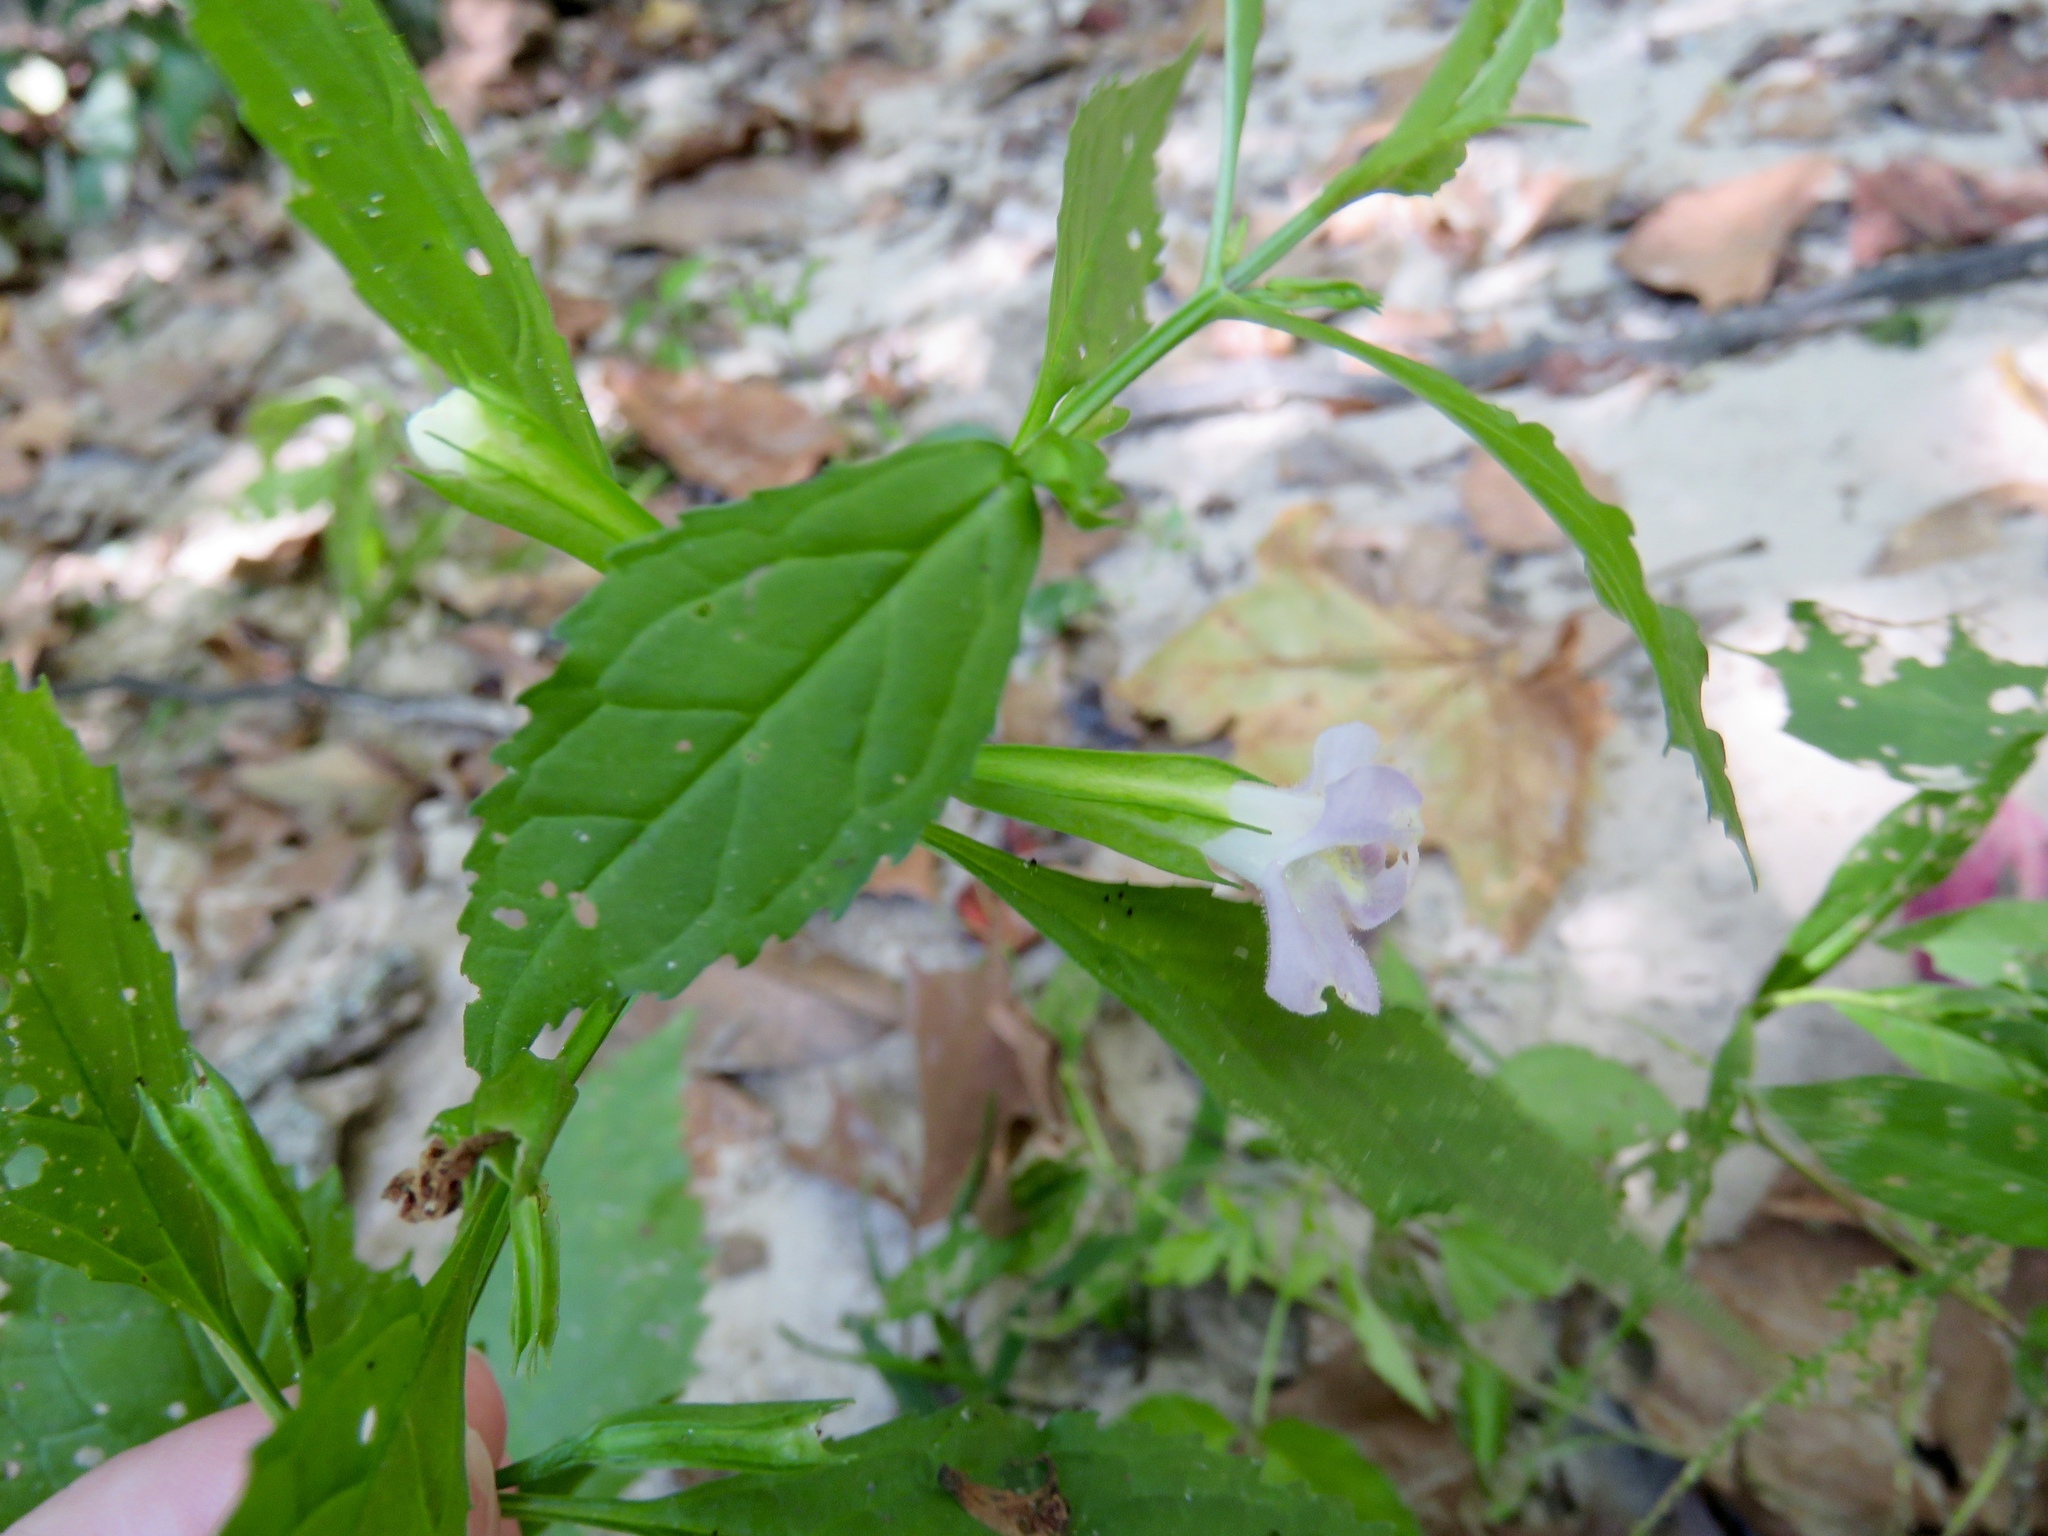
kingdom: Plantae
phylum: Tracheophyta
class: Magnoliopsida
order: Lamiales
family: Phrymaceae
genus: Mimulus
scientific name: Mimulus alatus
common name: Sharp-wing monkey-flower
